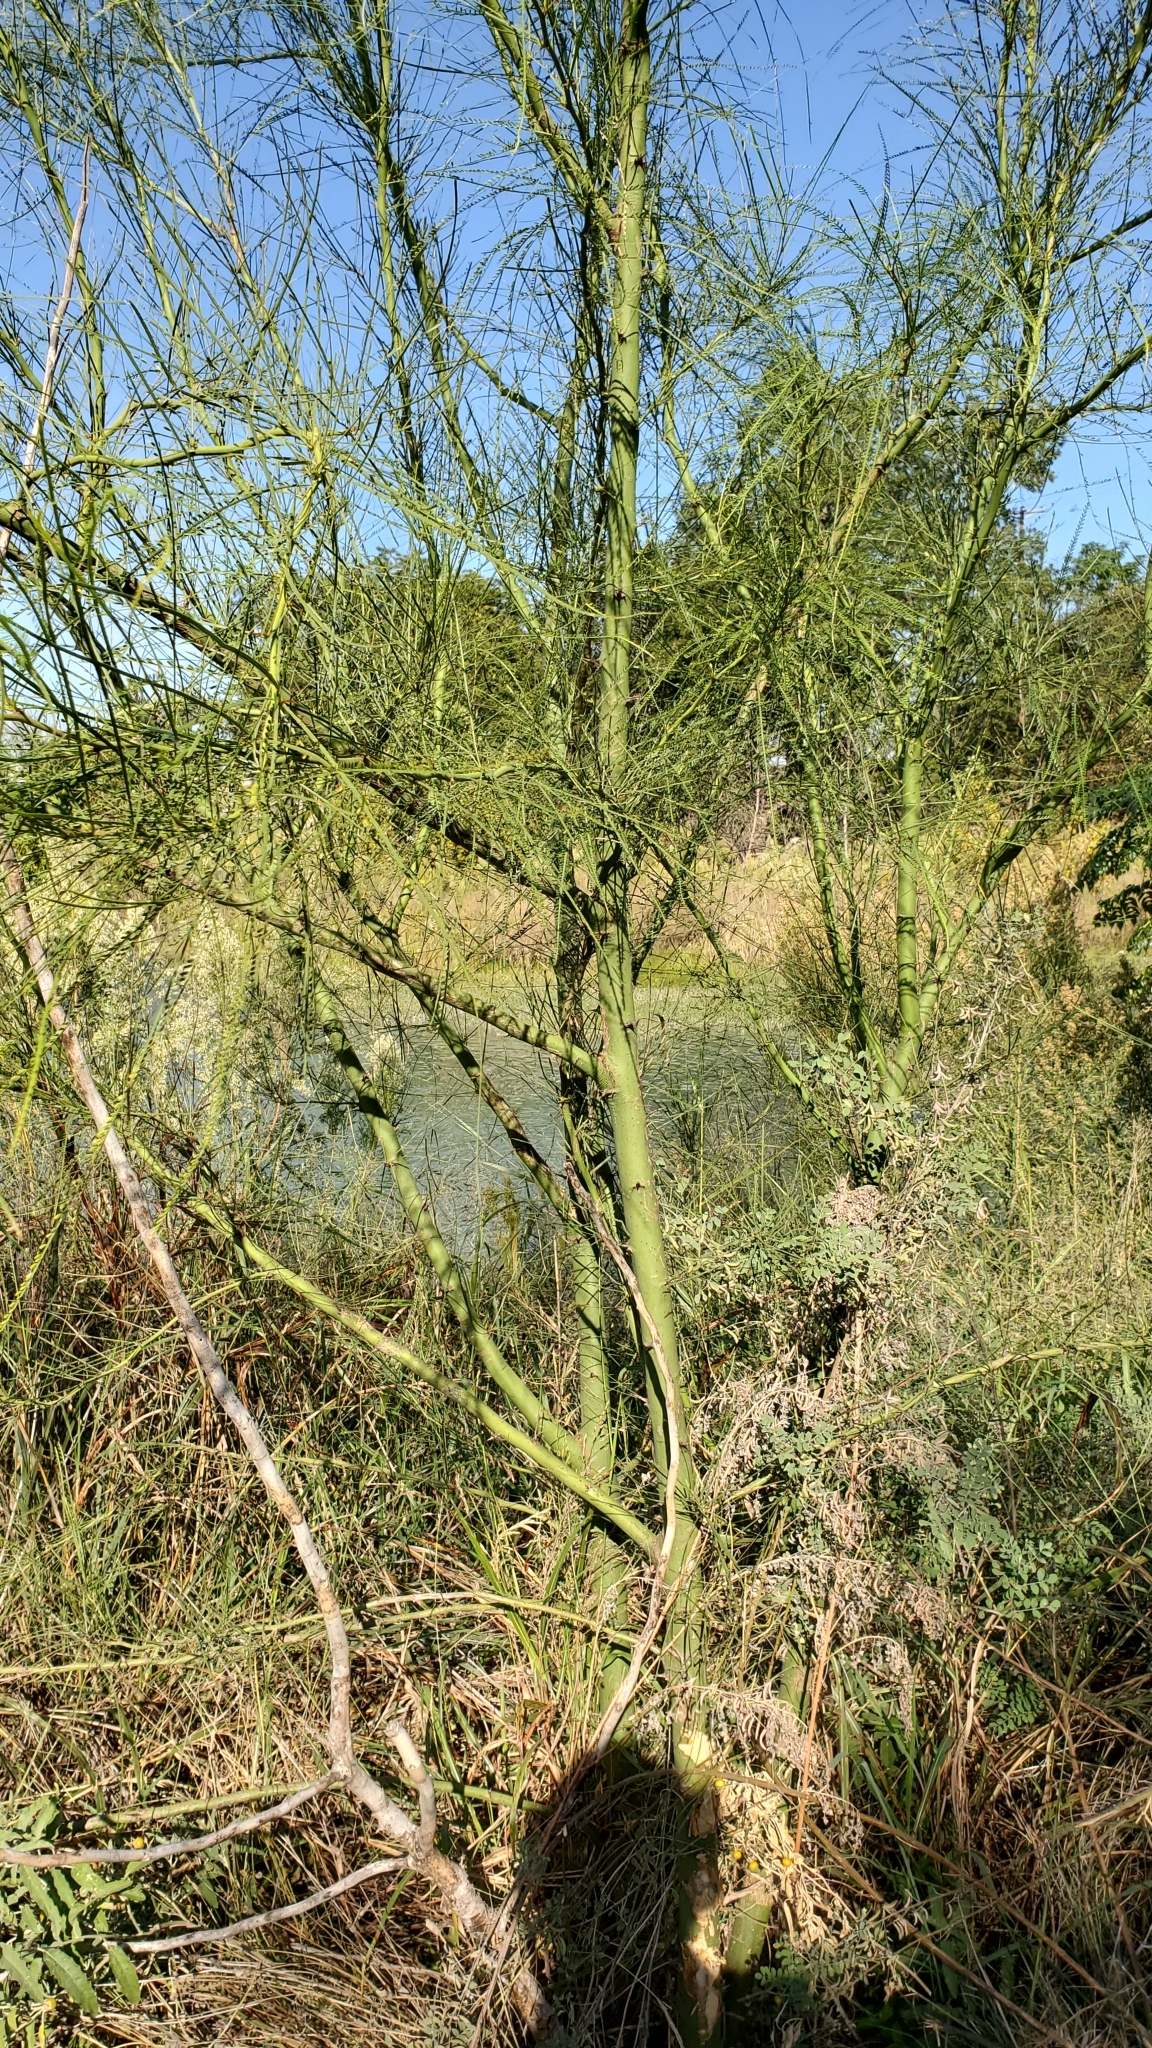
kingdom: Plantae
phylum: Tracheophyta
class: Magnoliopsida
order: Fabales
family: Fabaceae
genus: Parkinsonia
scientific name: Parkinsonia aculeata
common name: Jerusalem thorn
